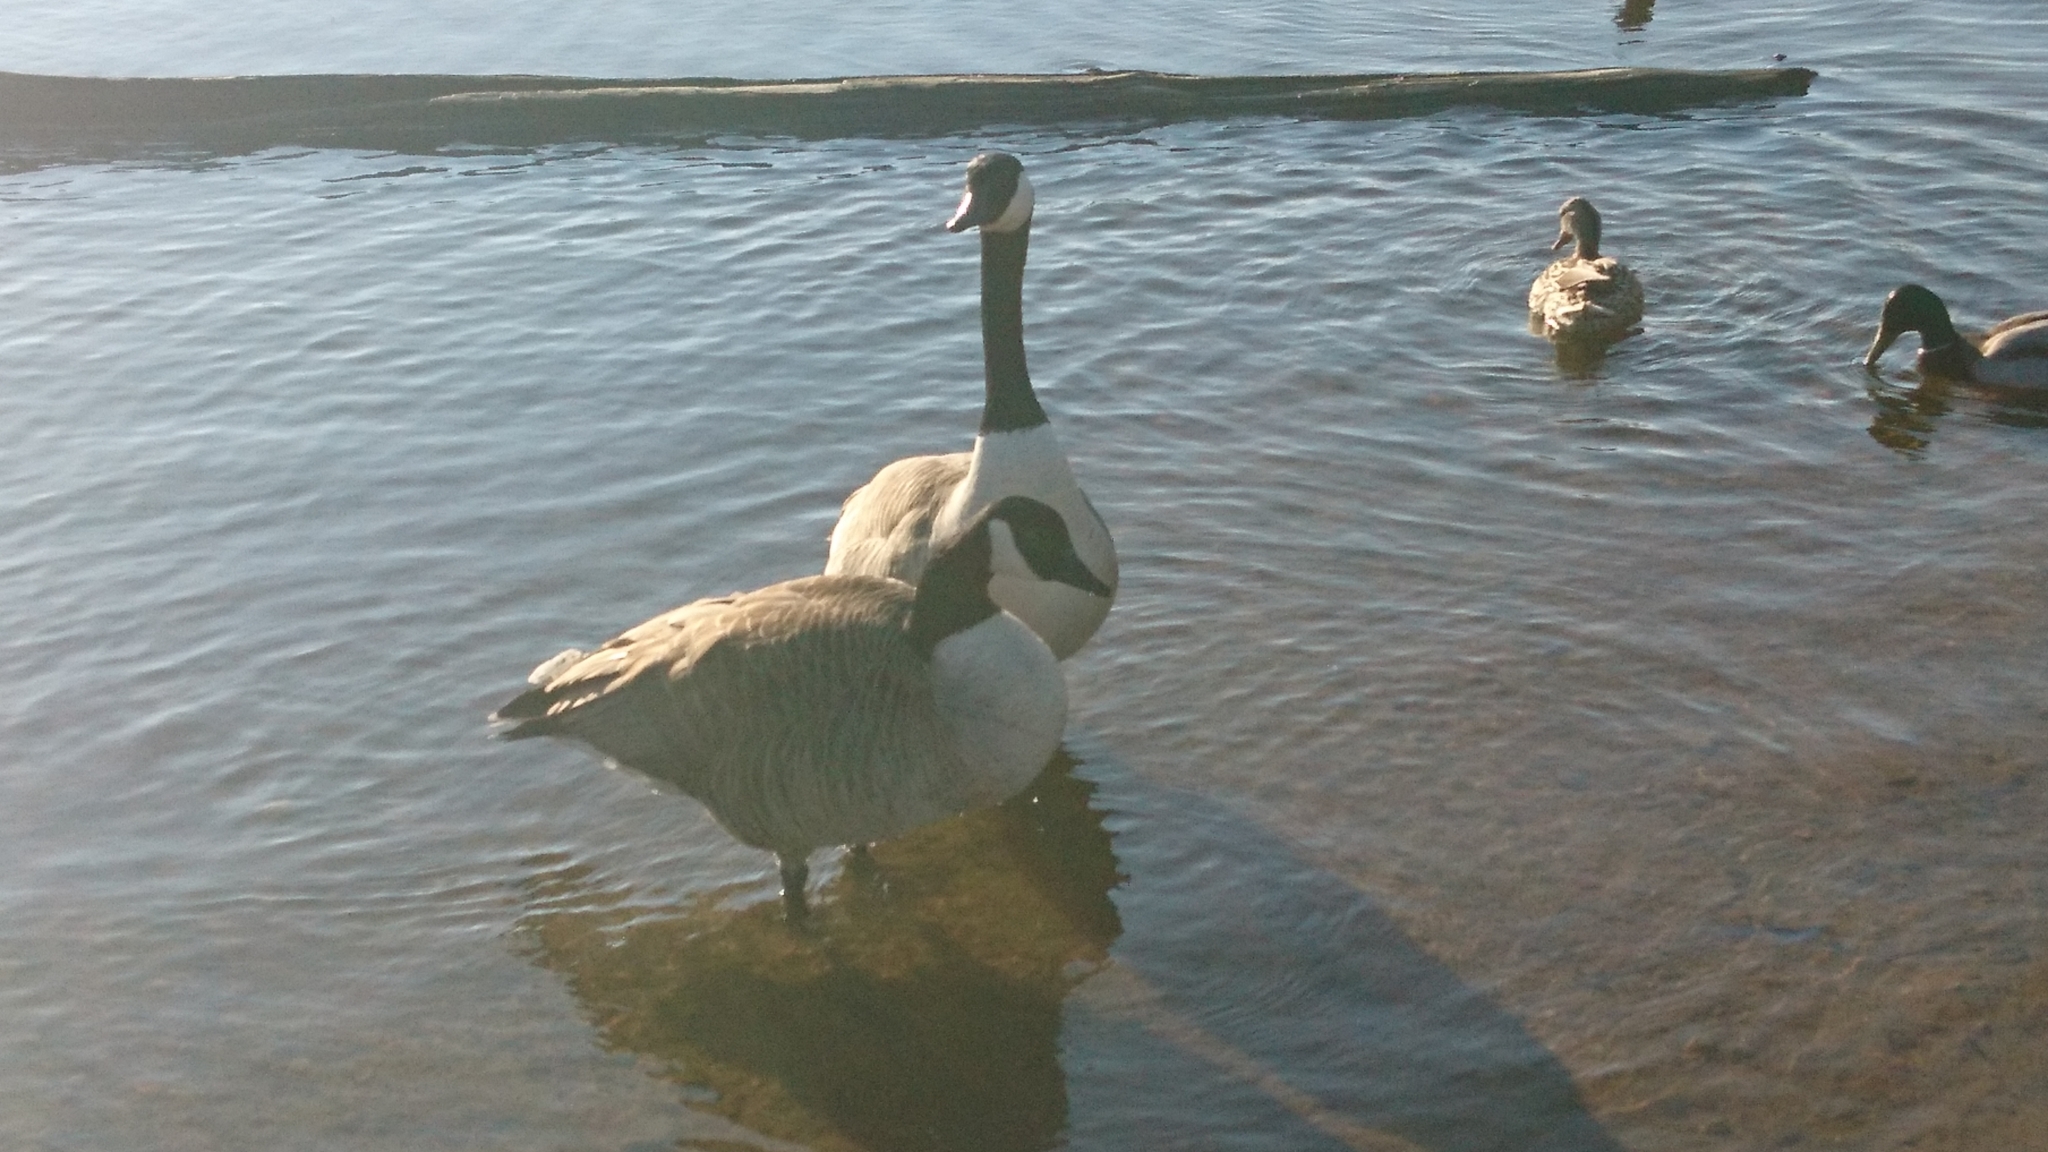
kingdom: Animalia
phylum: Chordata
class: Aves
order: Anseriformes
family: Anatidae
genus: Branta
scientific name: Branta canadensis
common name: Canada goose
